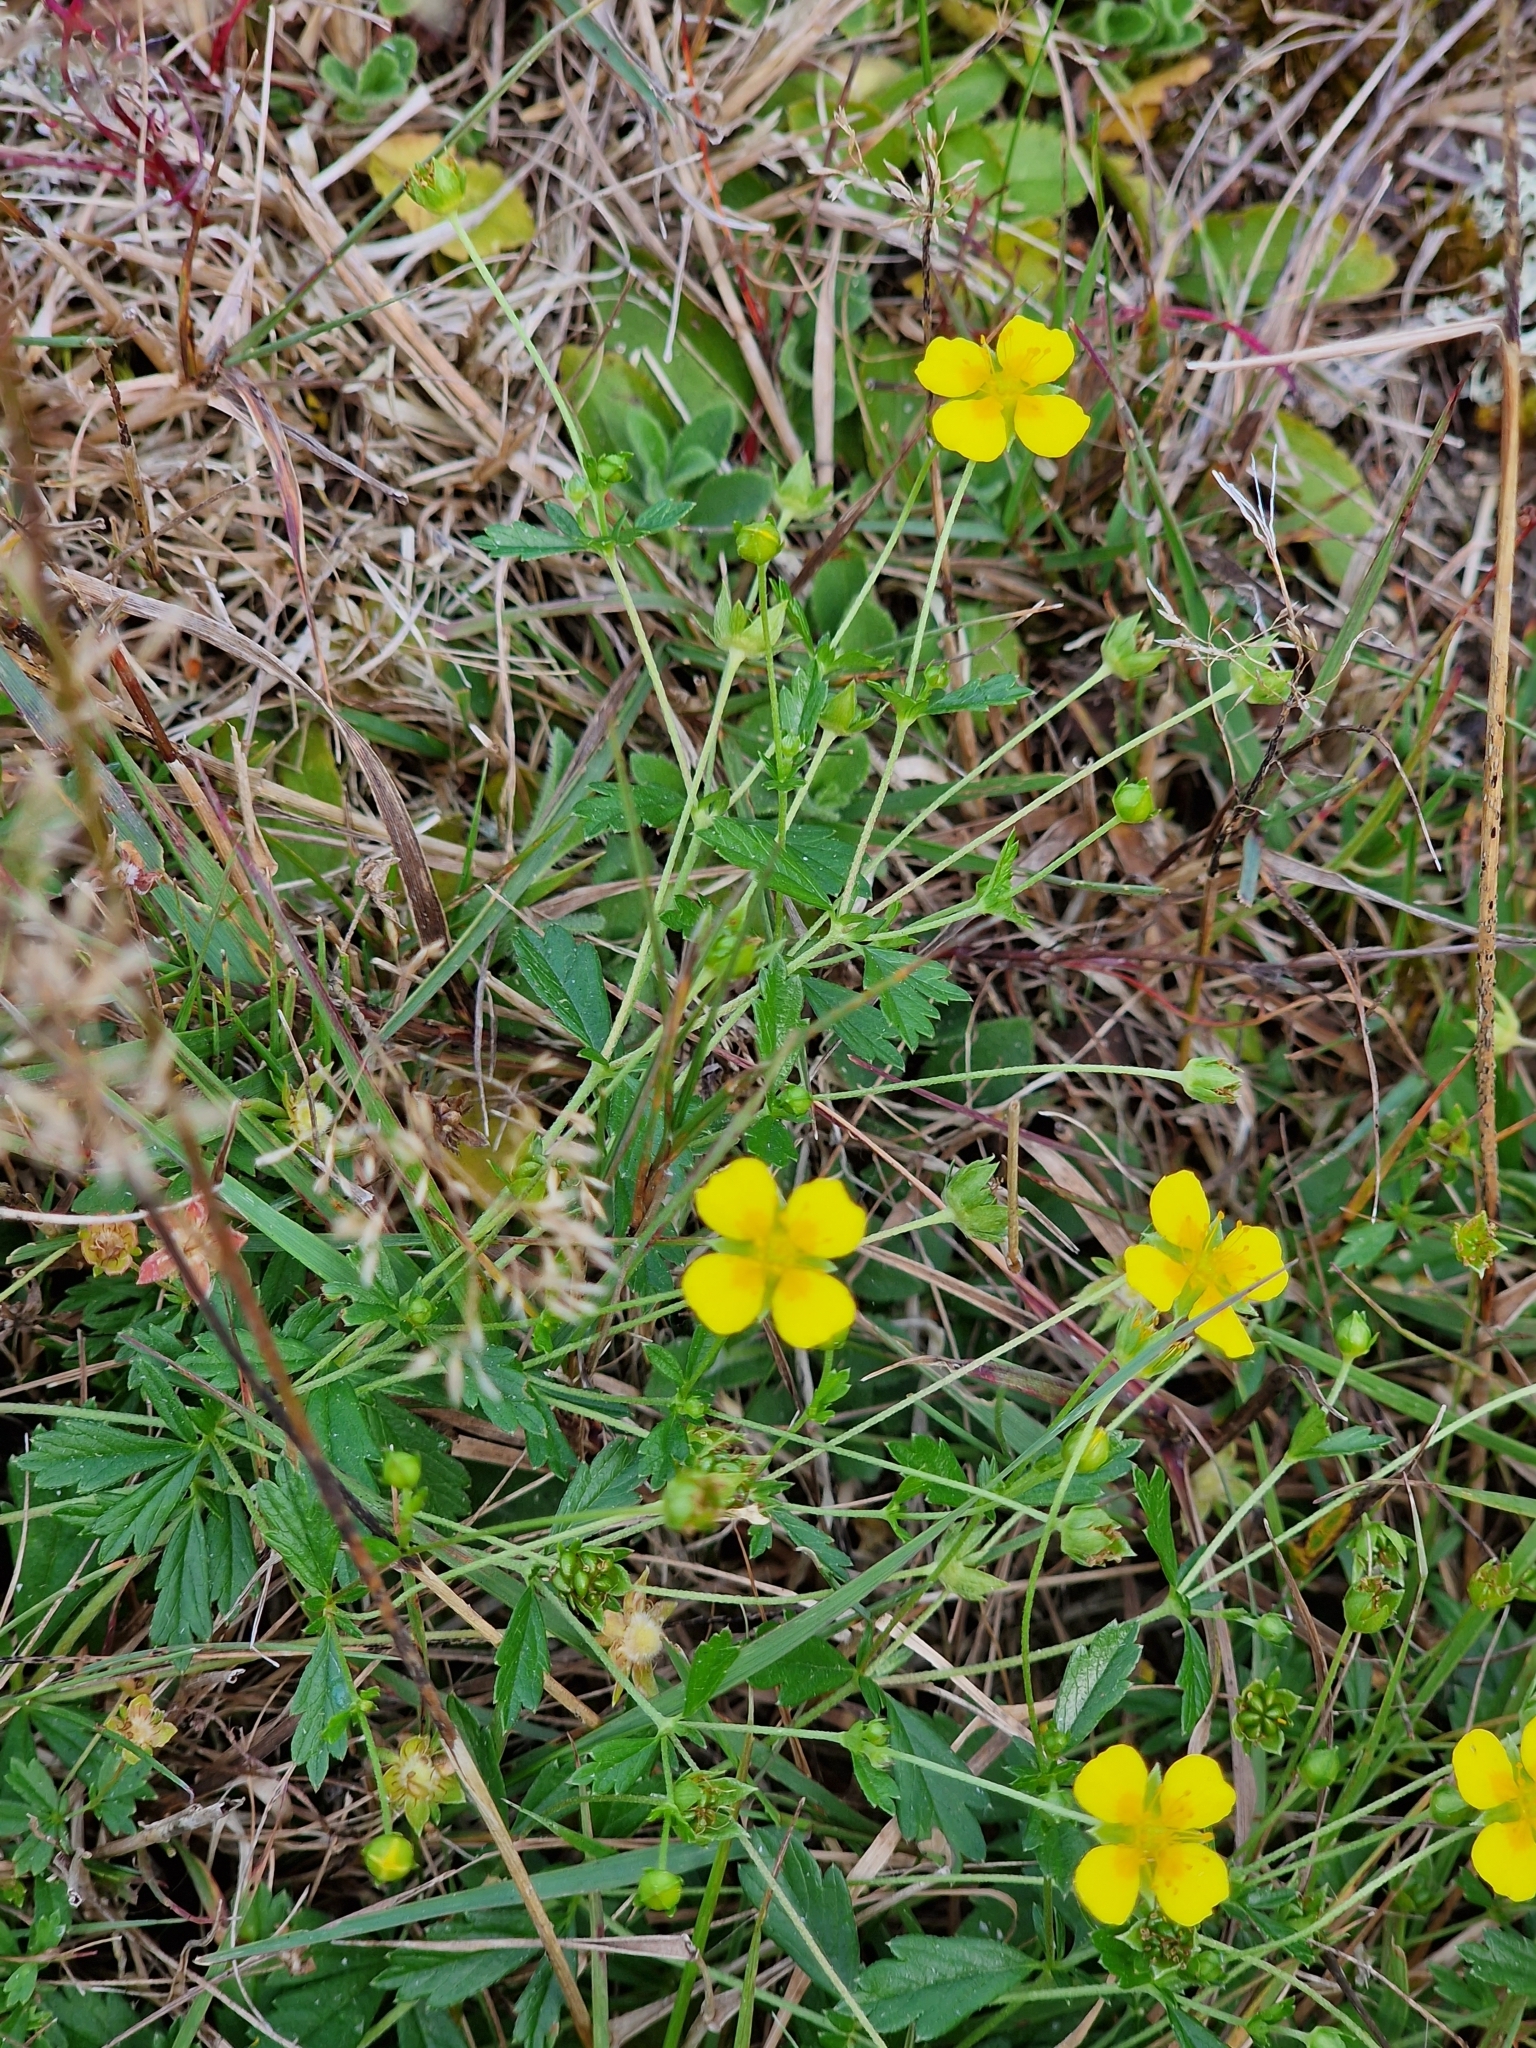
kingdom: Plantae
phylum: Tracheophyta
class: Magnoliopsida
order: Rosales
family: Rosaceae
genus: Potentilla
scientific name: Potentilla erecta
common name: Tormentil
